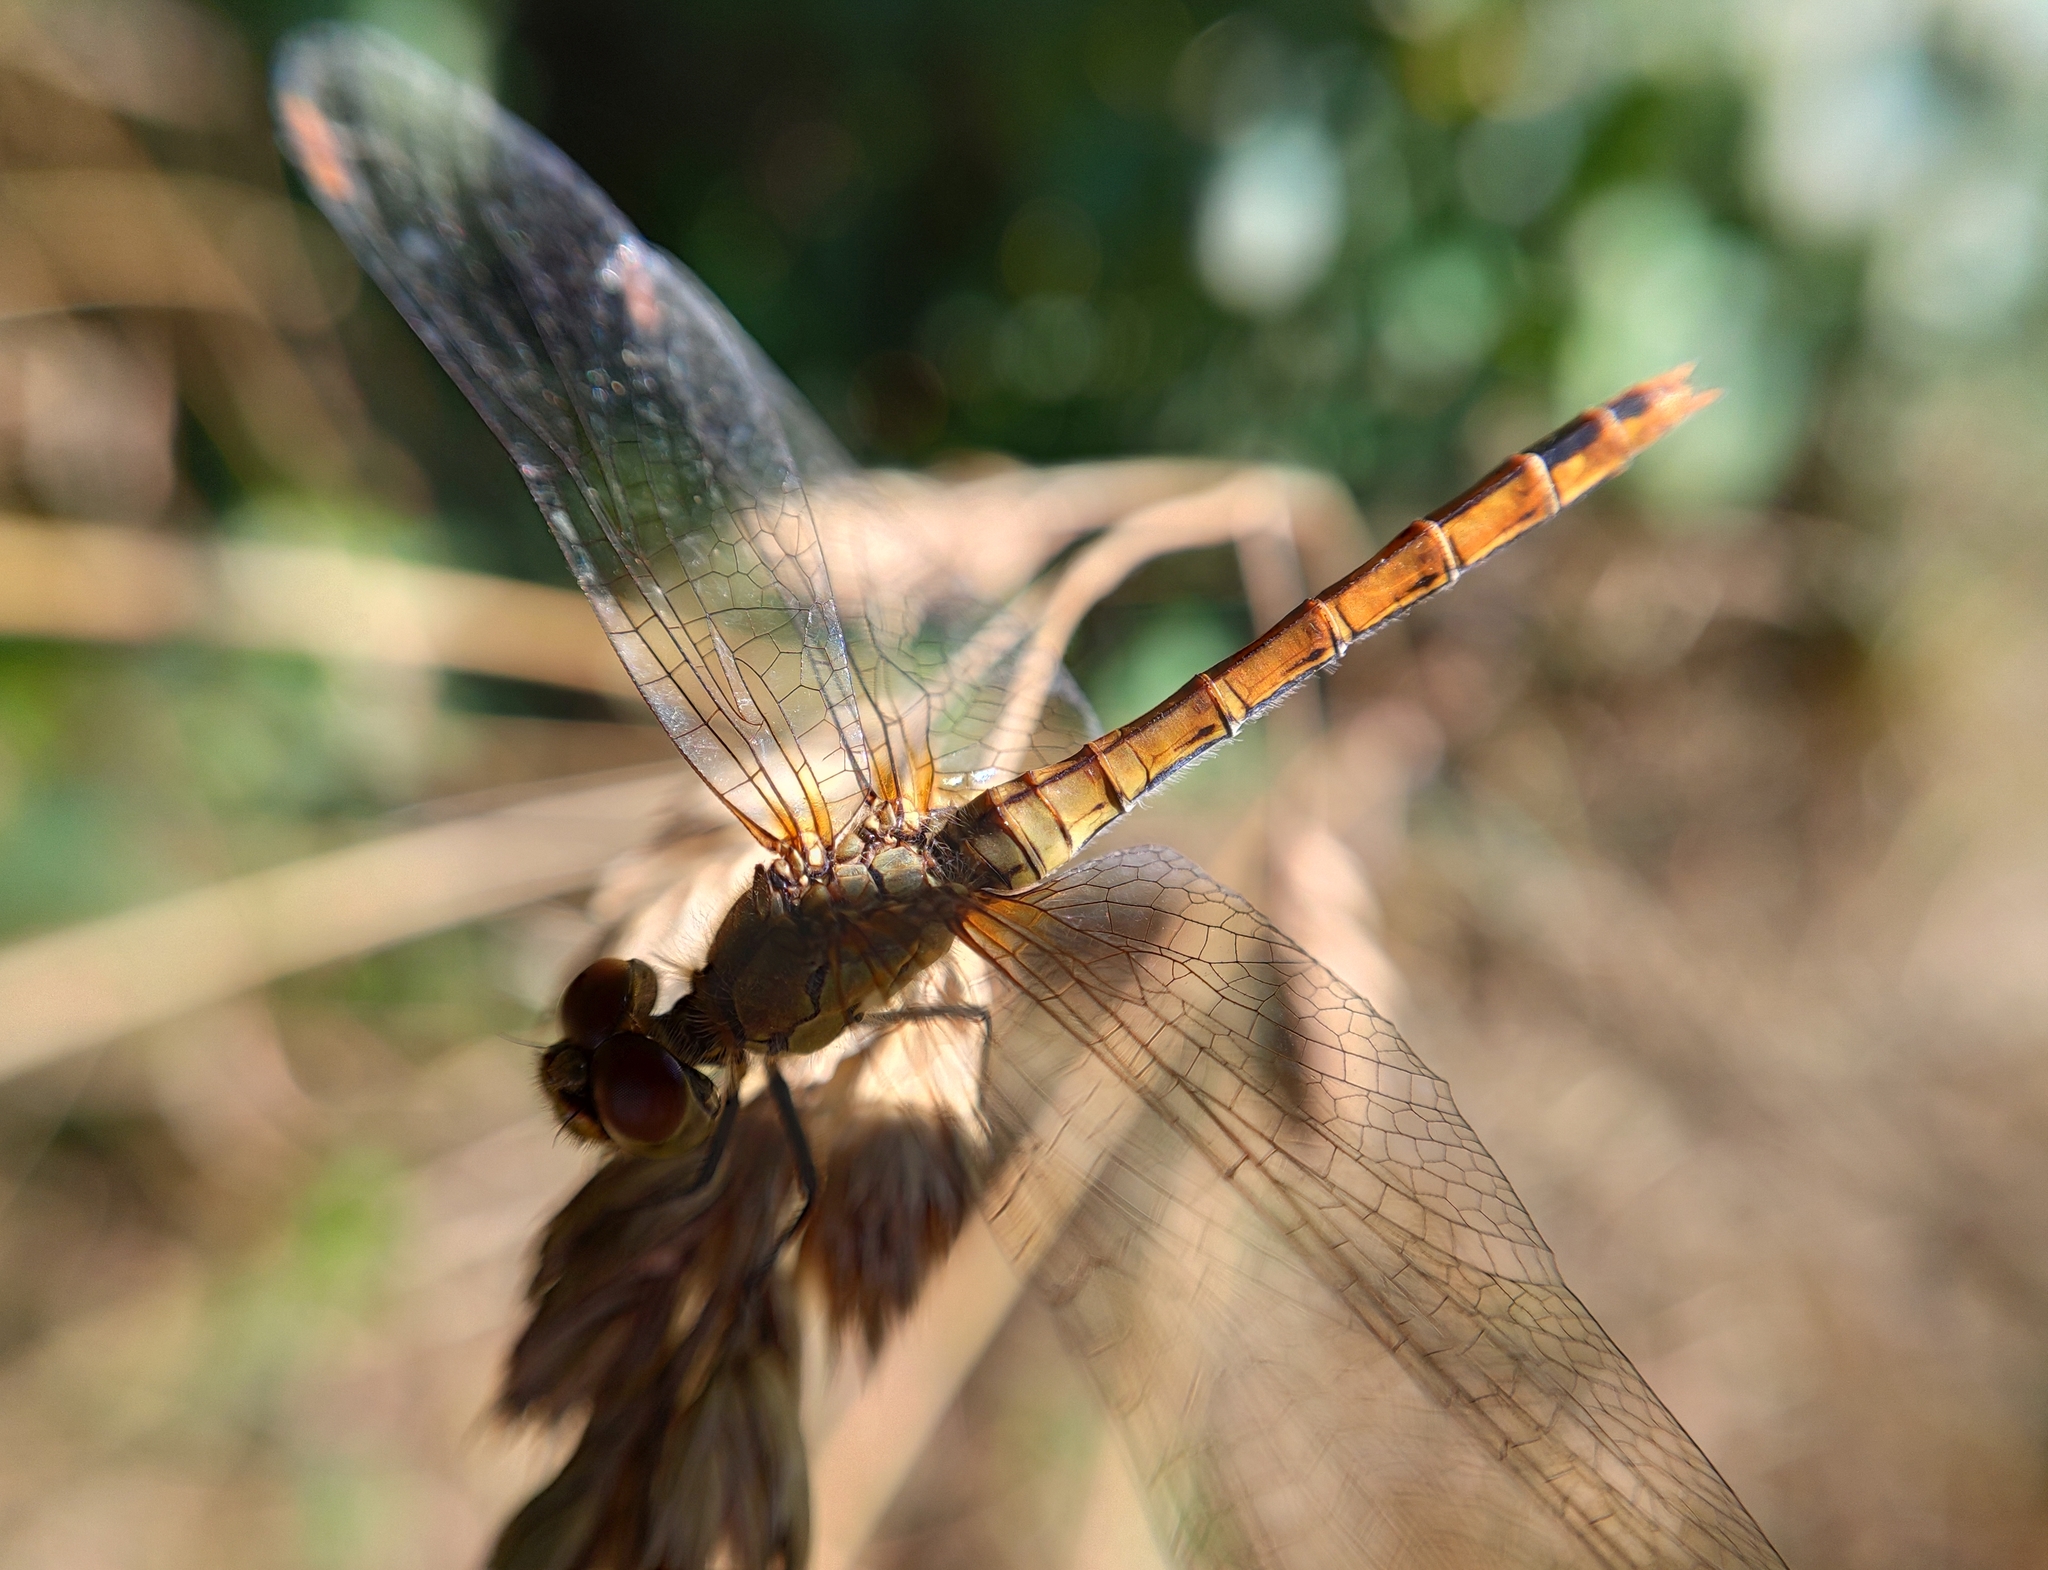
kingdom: Animalia
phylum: Arthropoda
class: Insecta
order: Odonata
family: Libellulidae
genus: Sympetrum
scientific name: Sympetrum sanguineum
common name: Ruddy darter
